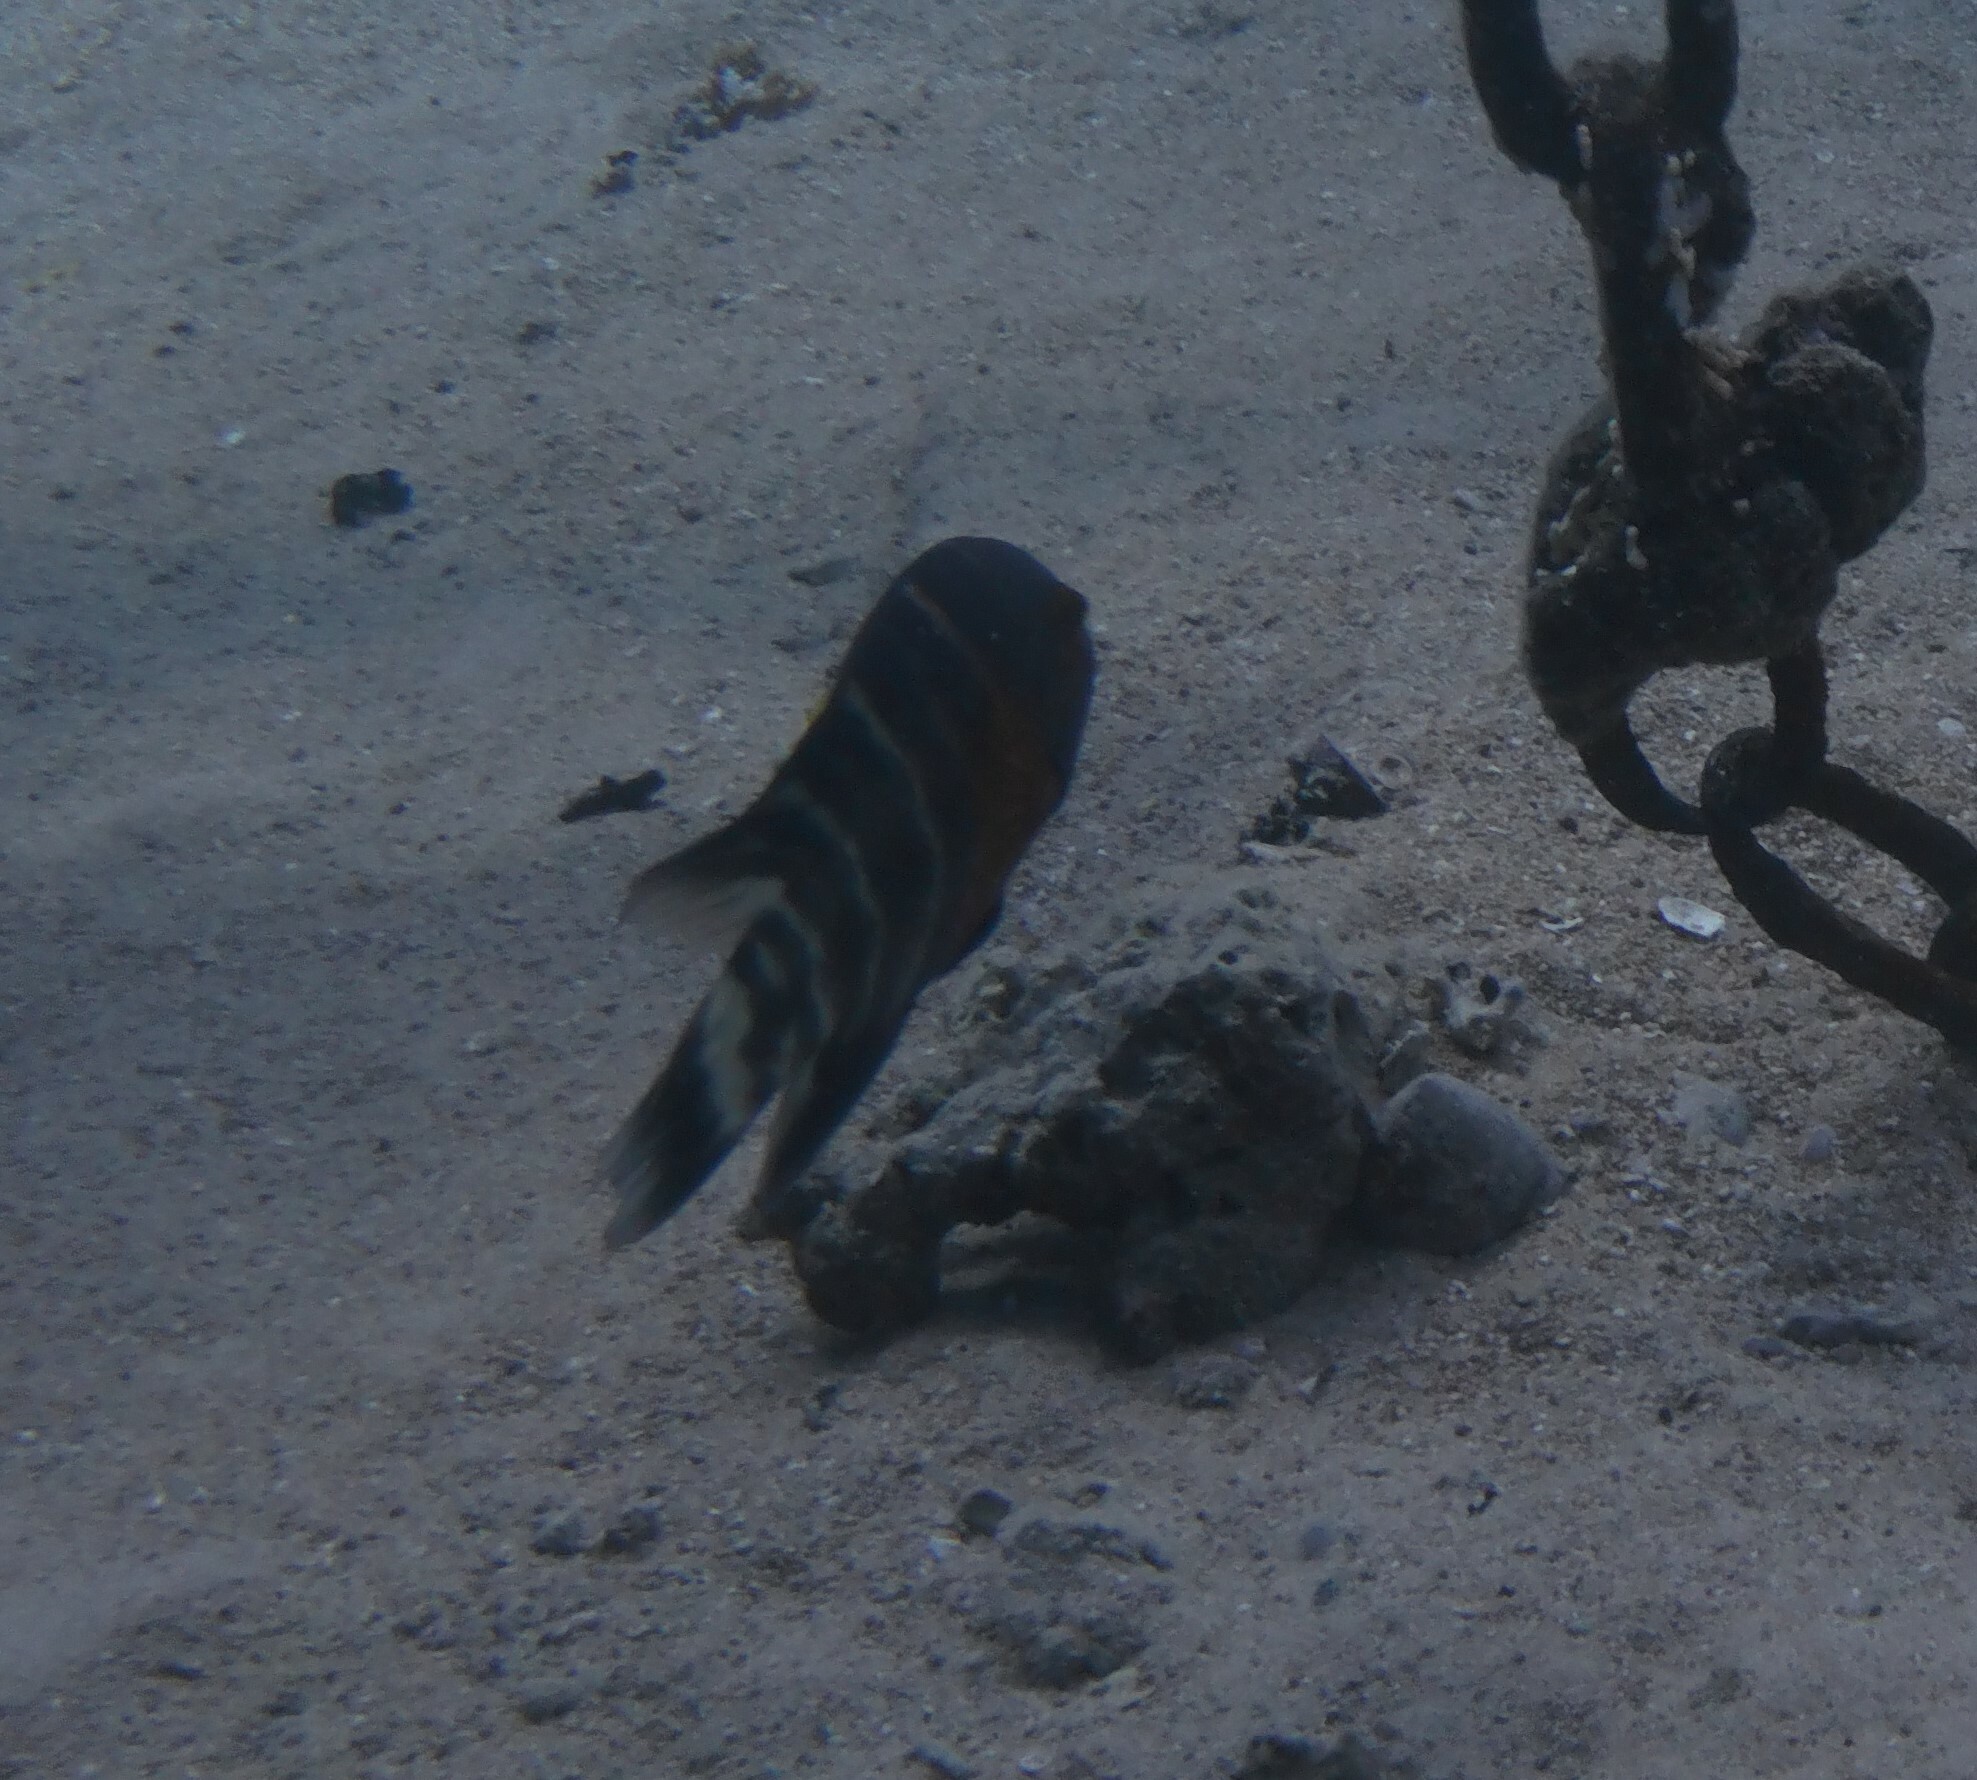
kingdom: Animalia
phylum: Chordata
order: Perciformes
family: Labridae
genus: Cheilinus
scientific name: Cheilinus fasciatus
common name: Red-breasted wrasse
